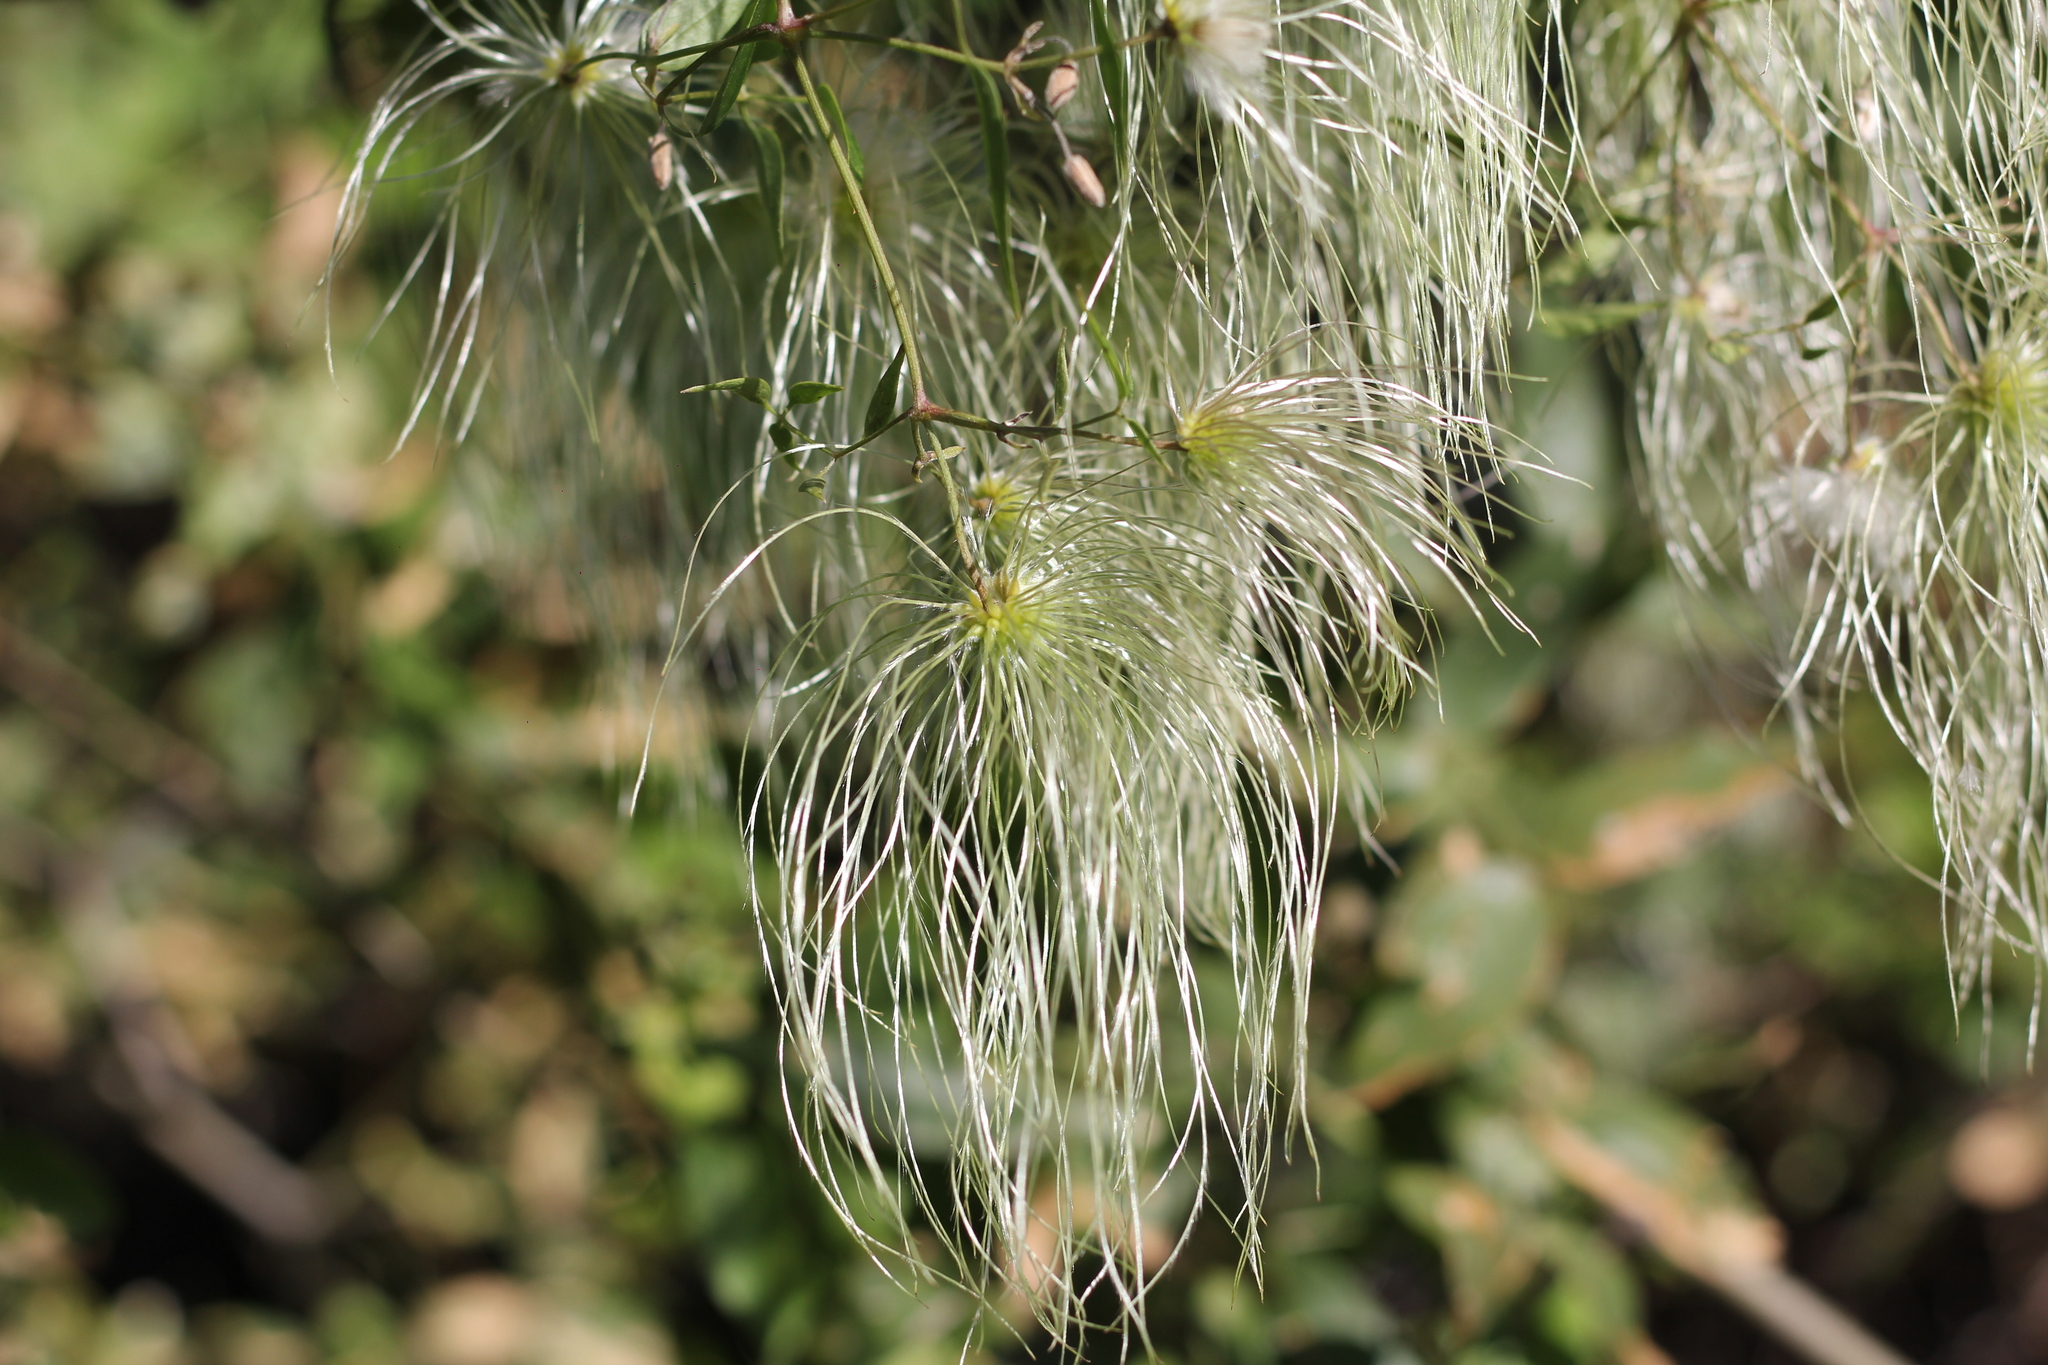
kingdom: Plantae
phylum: Tracheophyta
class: Magnoliopsida
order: Ranunculales
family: Ranunculaceae
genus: Clematis
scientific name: Clematis montevidensis
